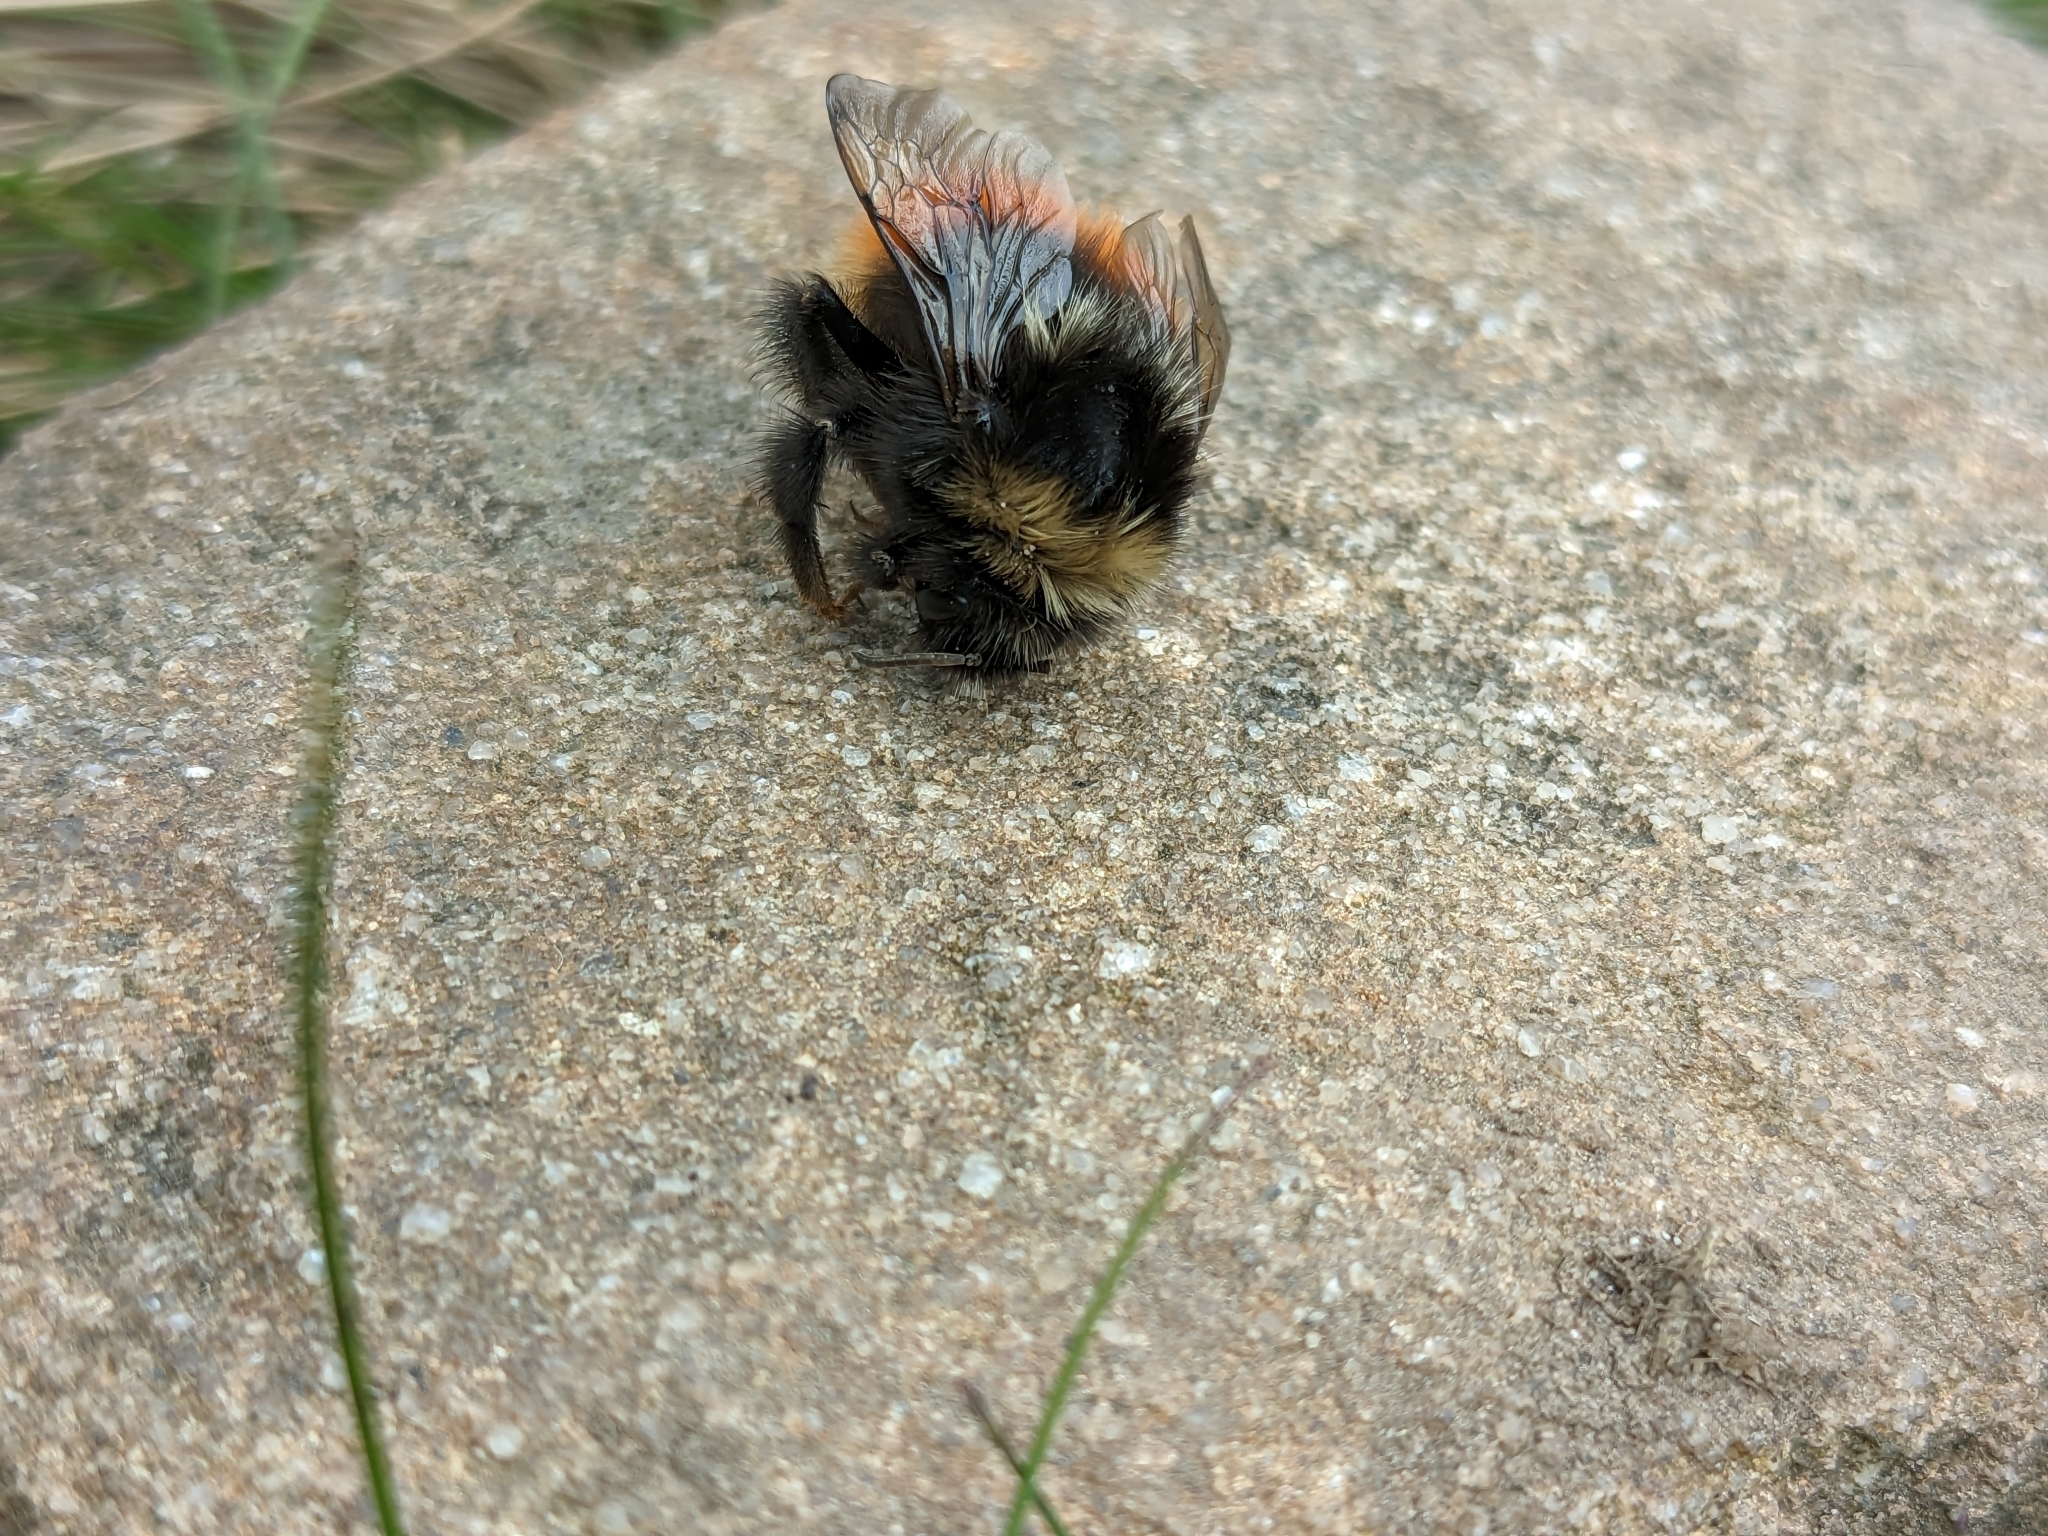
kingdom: Animalia
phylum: Arthropoda
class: Insecta
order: Hymenoptera
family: Apidae
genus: Bombus
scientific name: Bombus monticola
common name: Bilberry humble-bee
